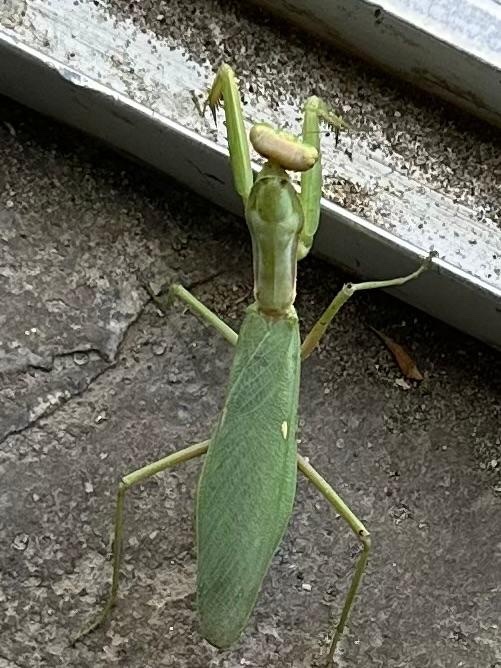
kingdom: Animalia
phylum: Arthropoda
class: Insecta
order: Mantodea
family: Mantidae
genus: Hierodula
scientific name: Hierodula transcaucasica
